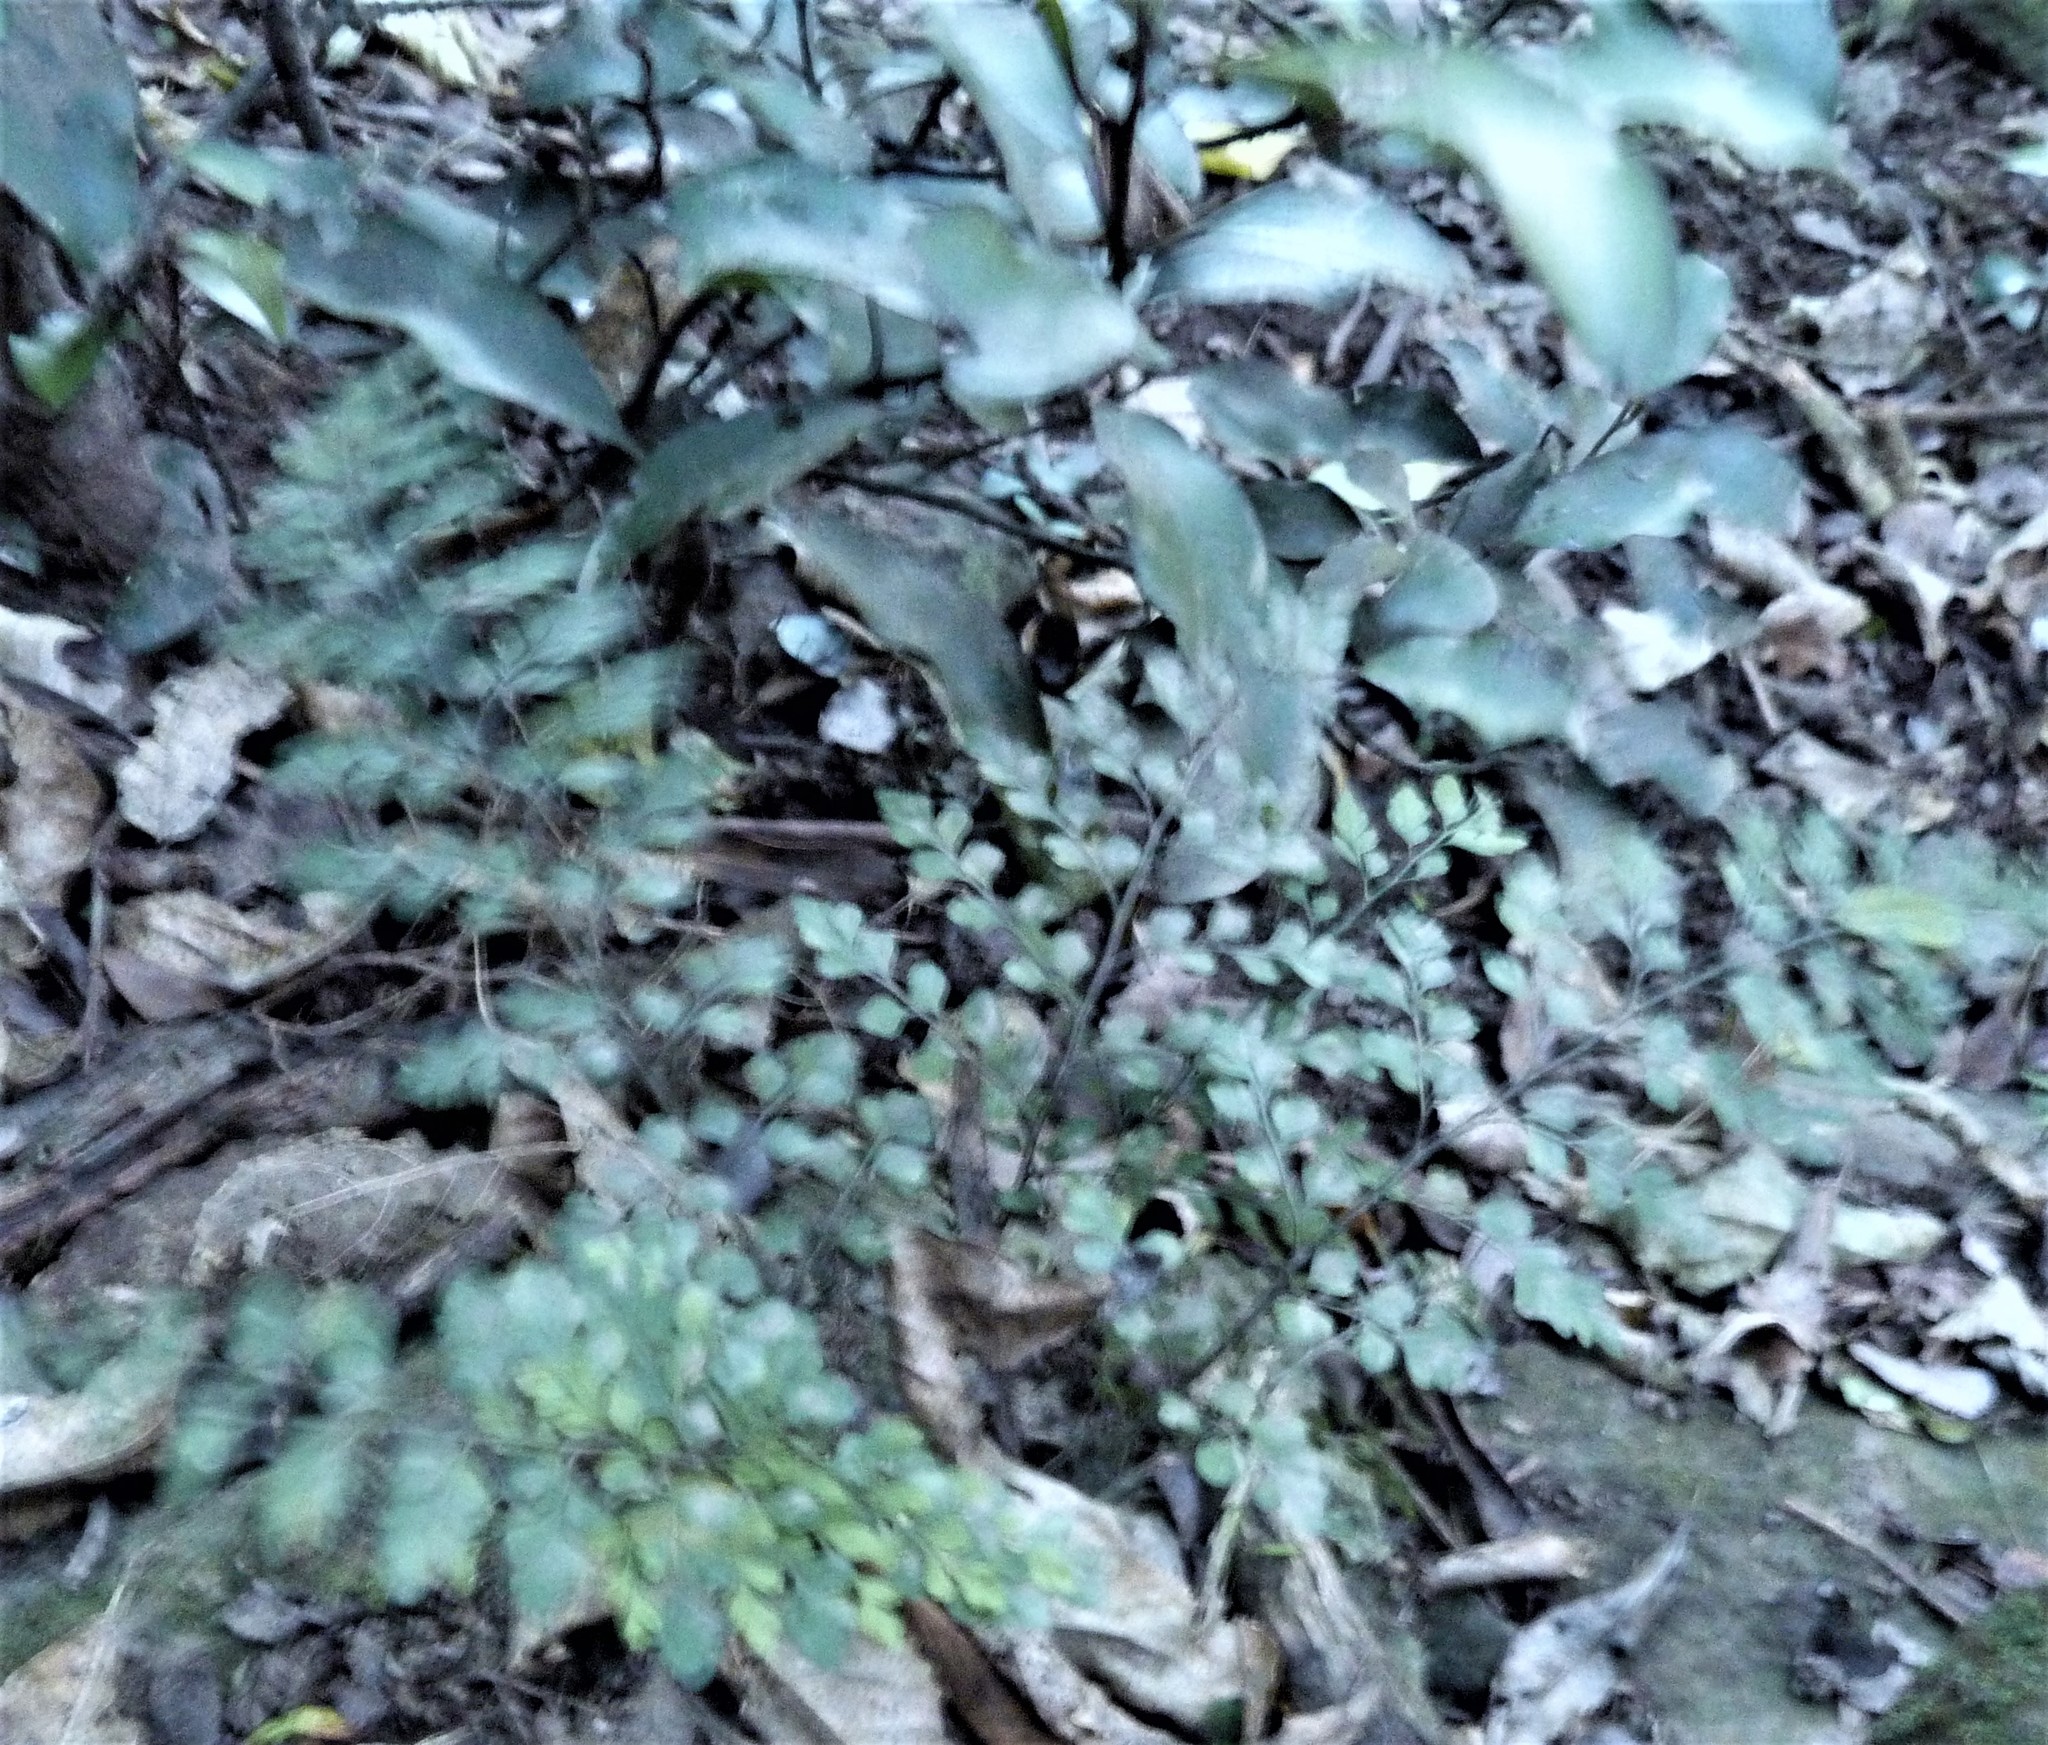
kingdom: Plantae
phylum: Tracheophyta
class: Polypodiopsida
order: Polypodiales
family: Aspleniaceae
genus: Asplenium
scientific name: Asplenium hookerianum
